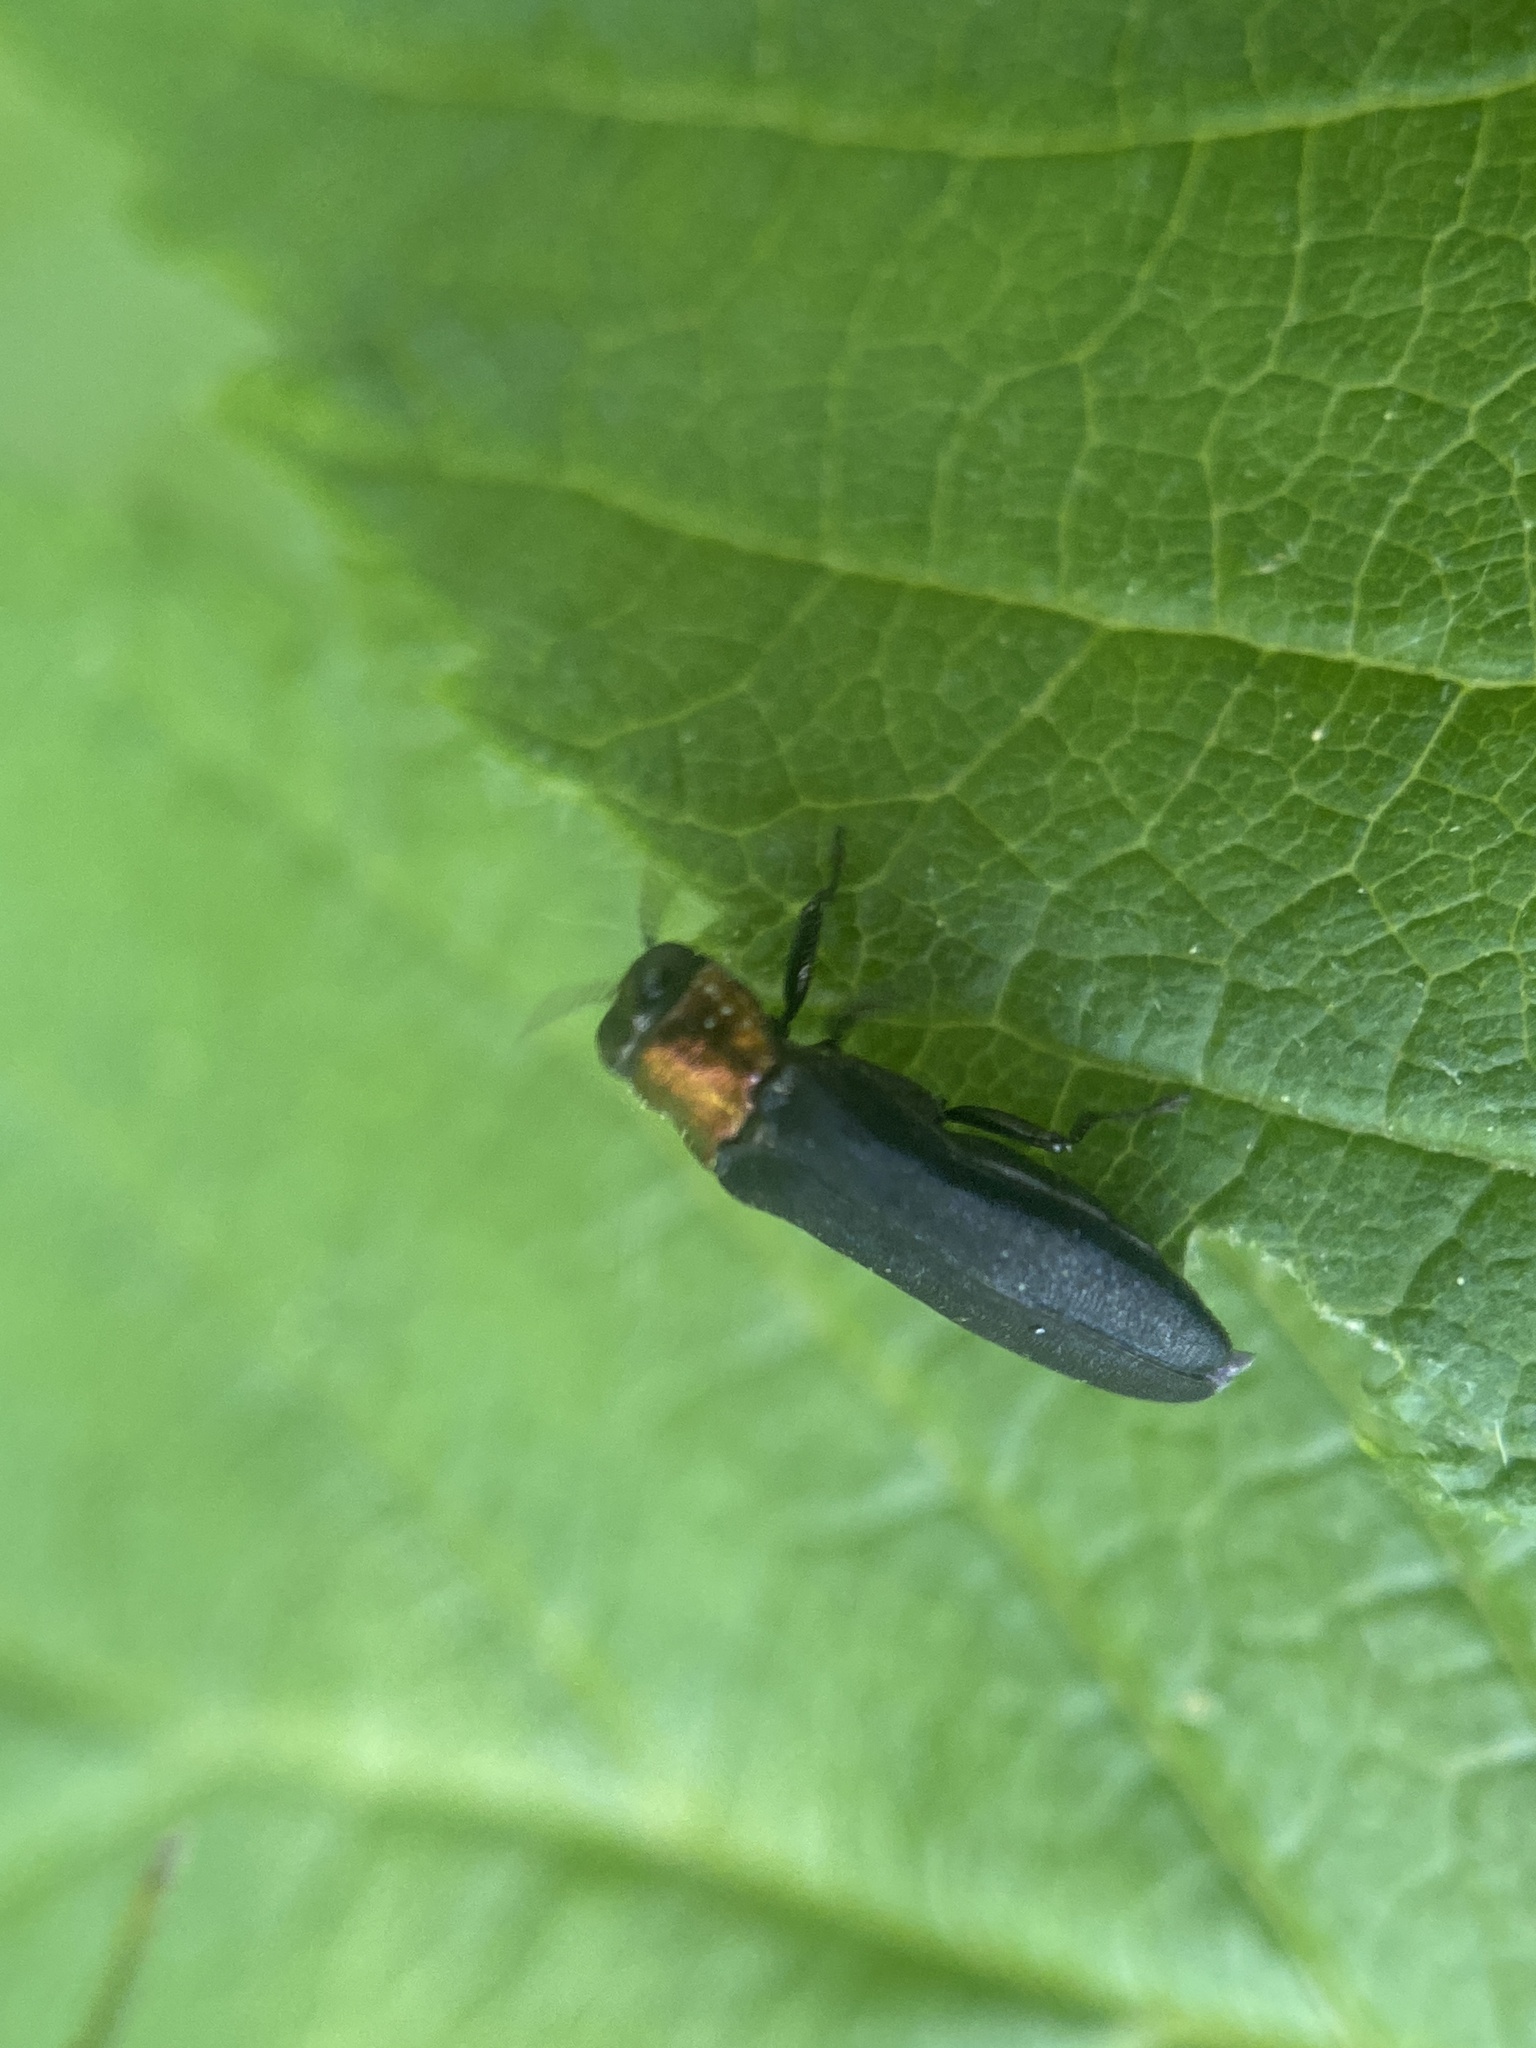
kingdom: Animalia
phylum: Arthropoda
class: Insecta
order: Coleoptera
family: Buprestidae
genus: Agrilus
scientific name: Agrilus ruficollis
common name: Red-necked cane borer beetle
